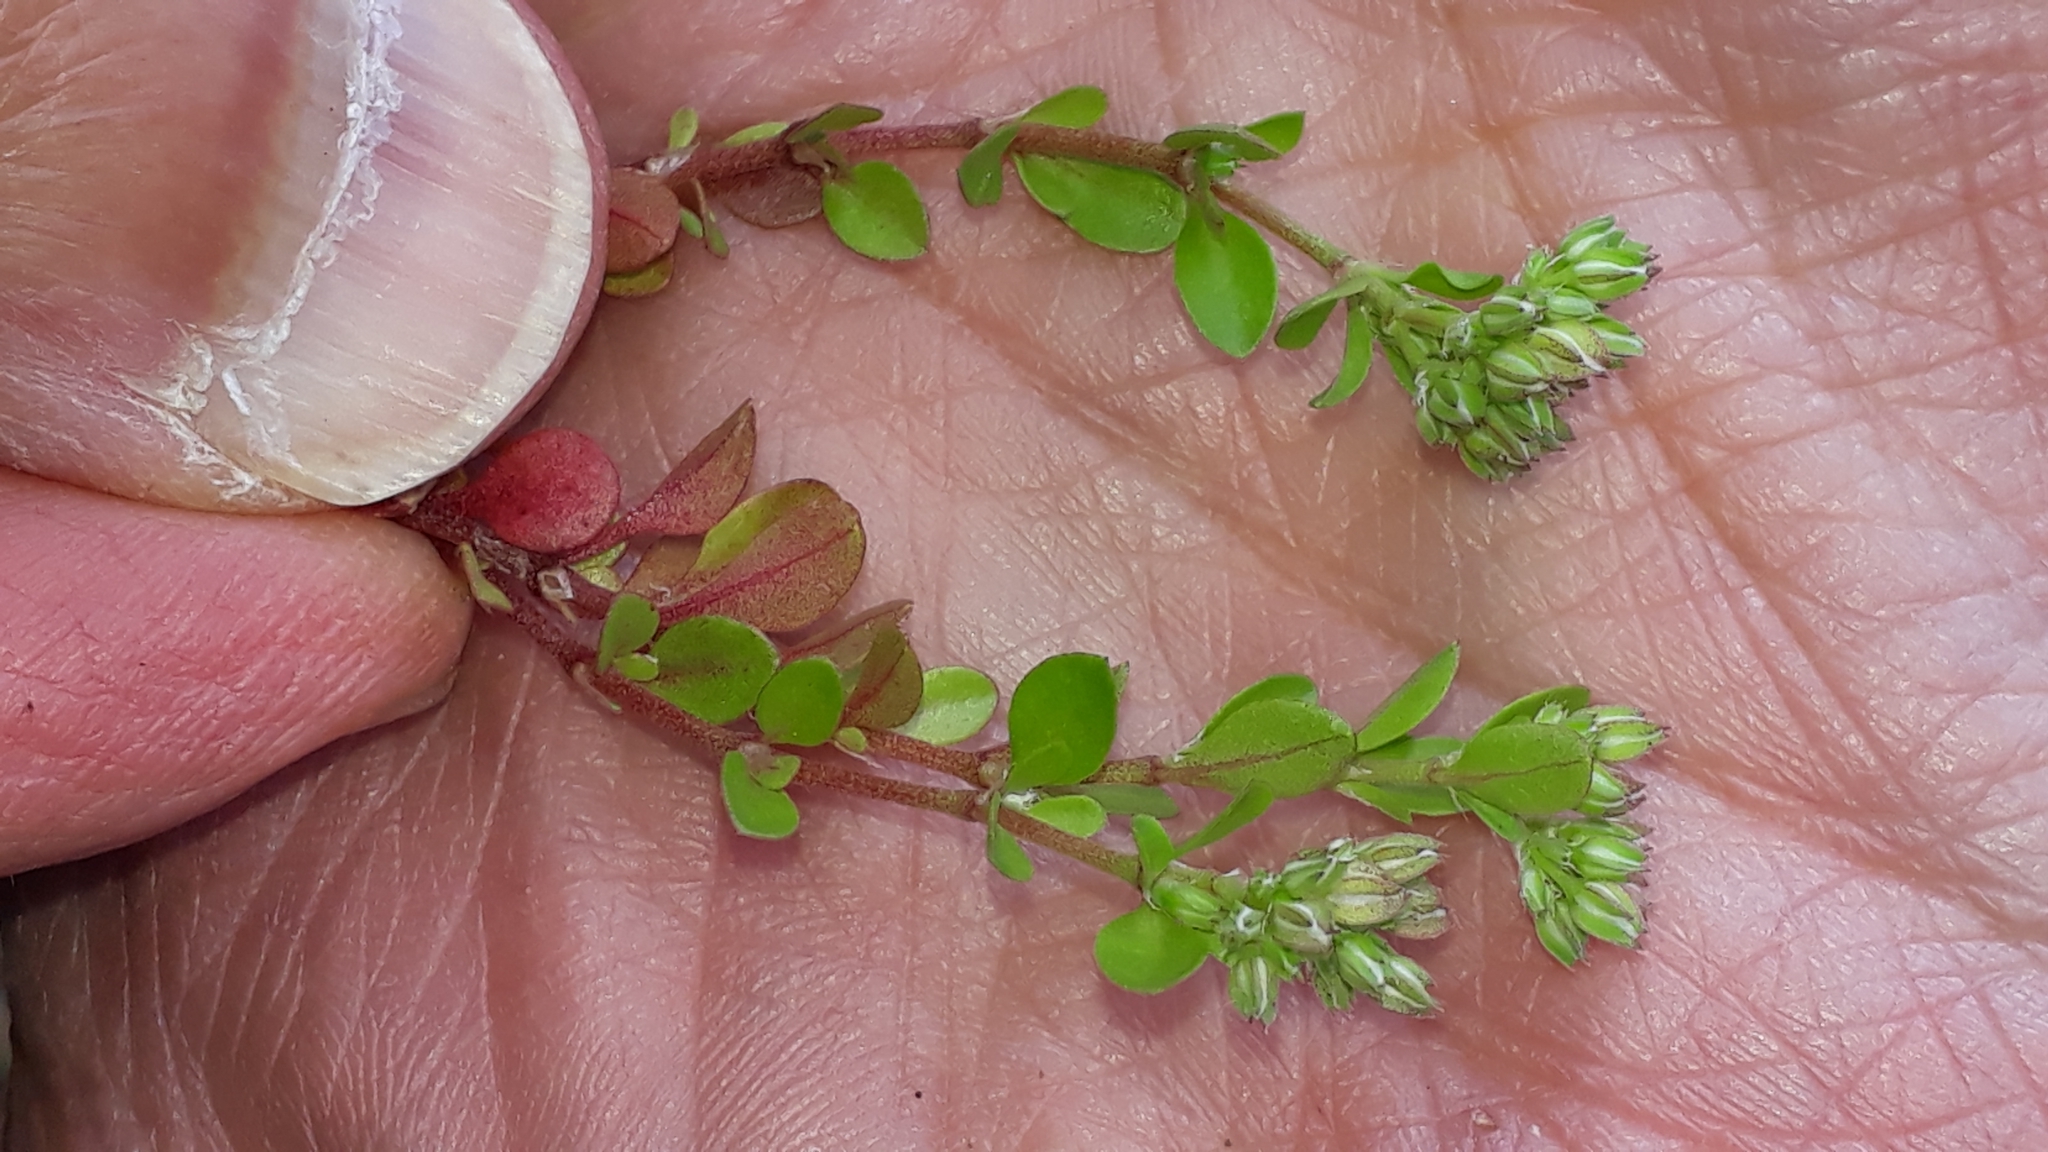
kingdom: Plantae
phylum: Tracheophyta
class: Magnoliopsida
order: Caryophyllales
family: Caryophyllaceae
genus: Polycarpon
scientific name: Polycarpon tetraphyllum
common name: Four-leaved all-seed
